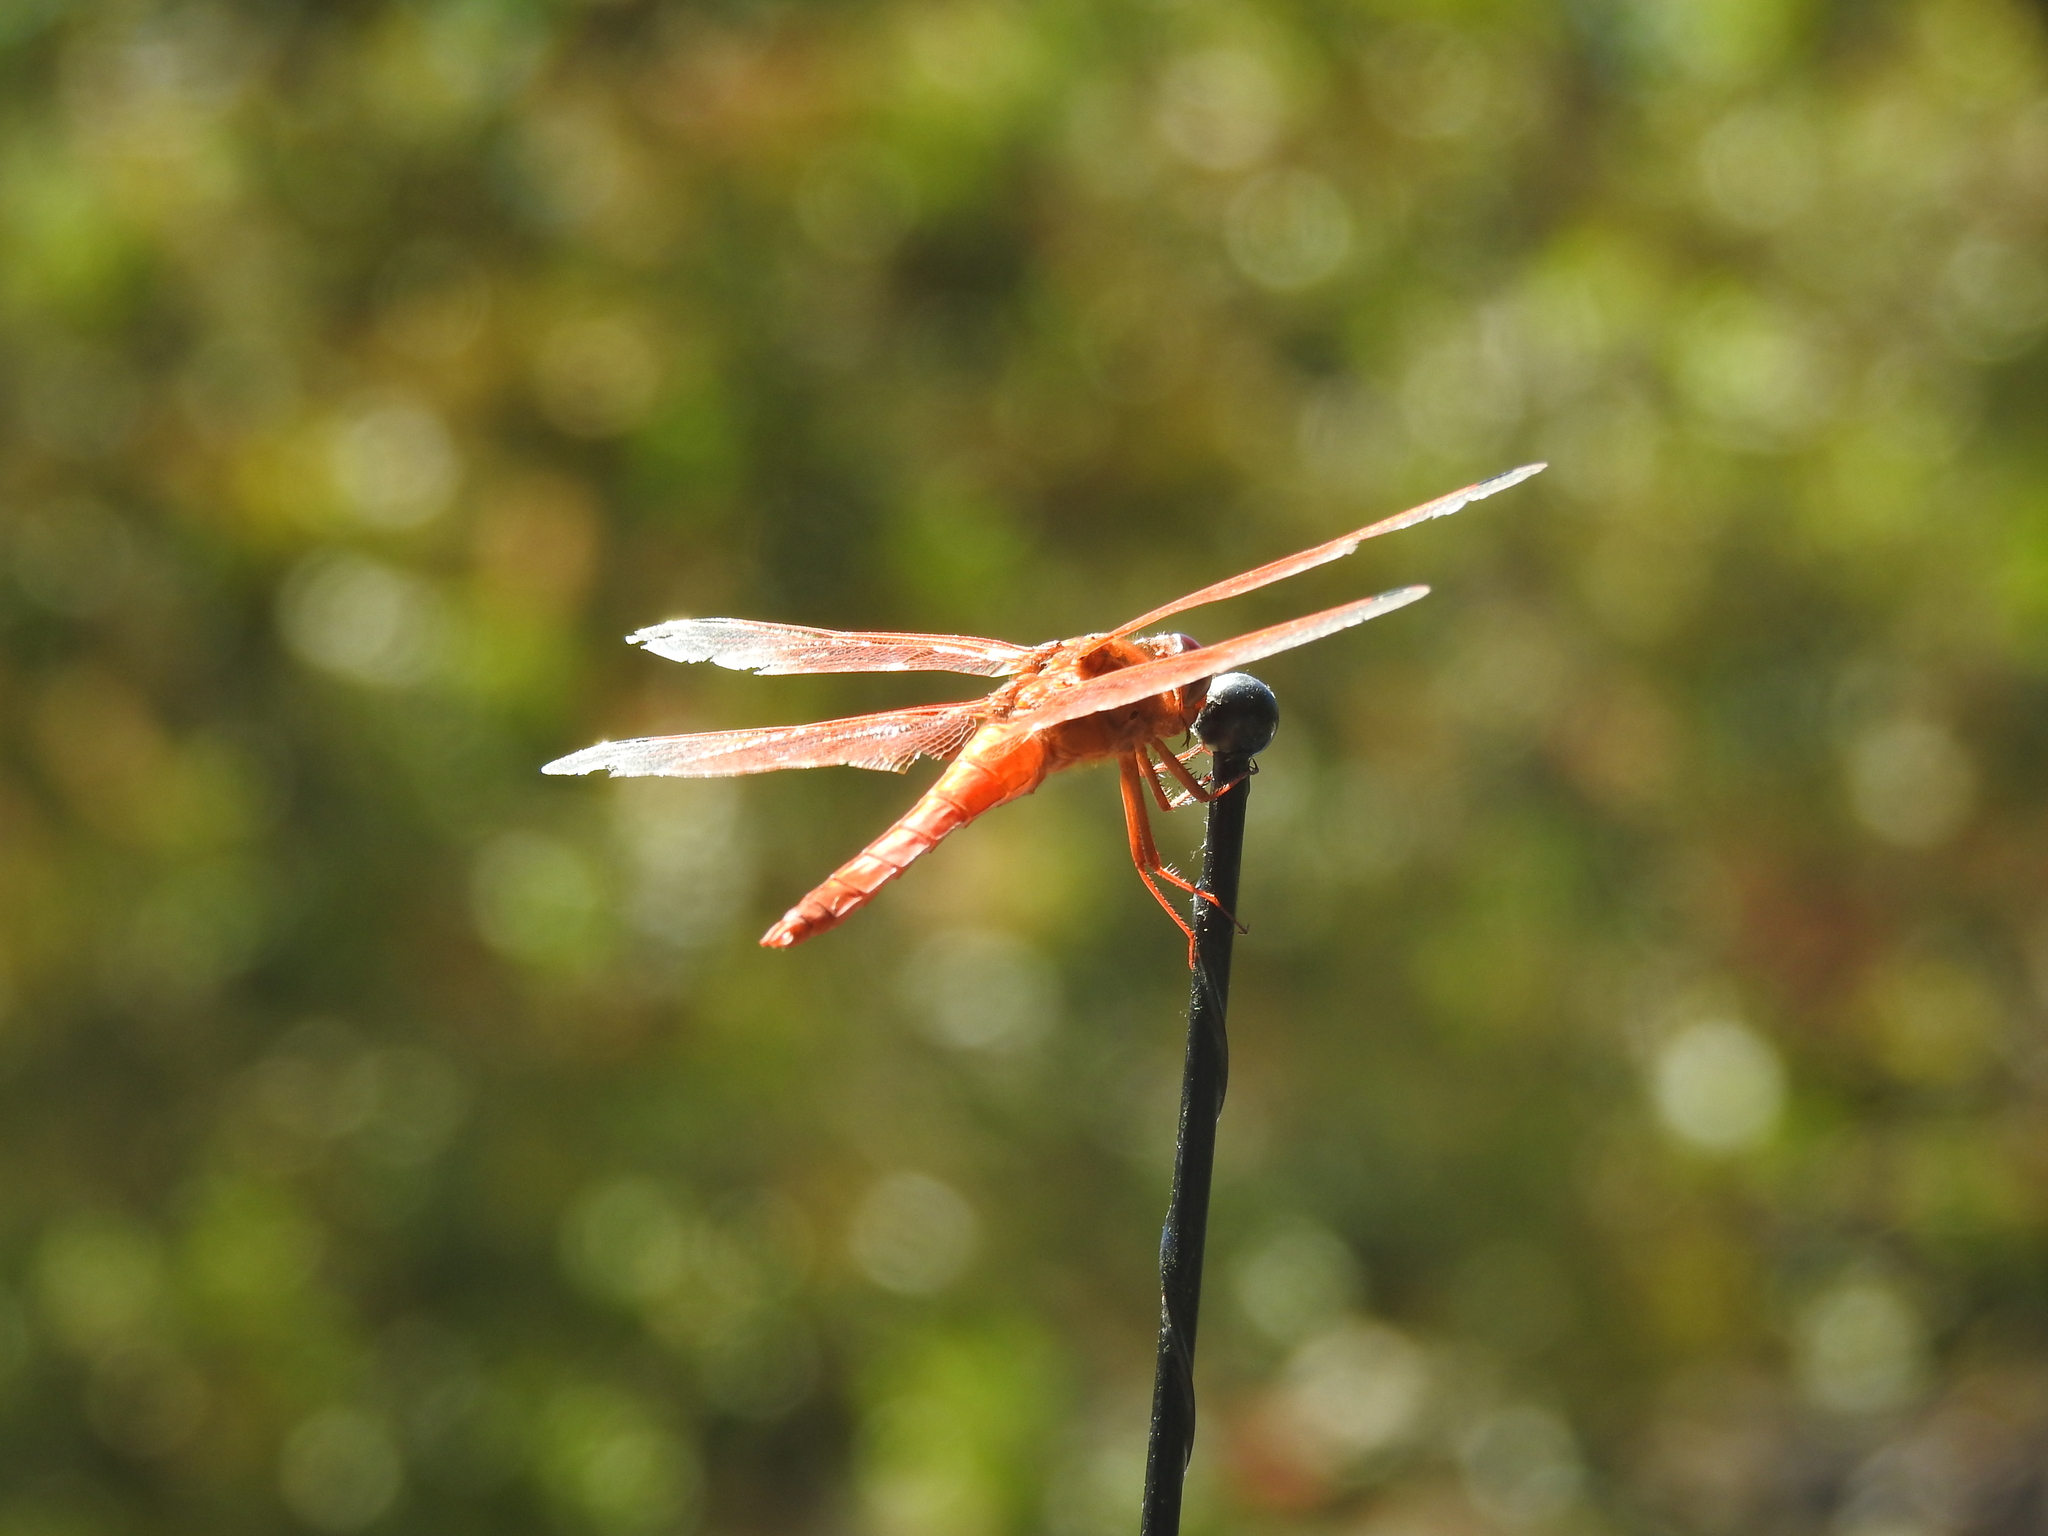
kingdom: Animalia
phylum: Arthropoda
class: Insecta
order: Odonata
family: Libellulidae
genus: Libellula
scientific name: Libellula saturata
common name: Flame skimmer
